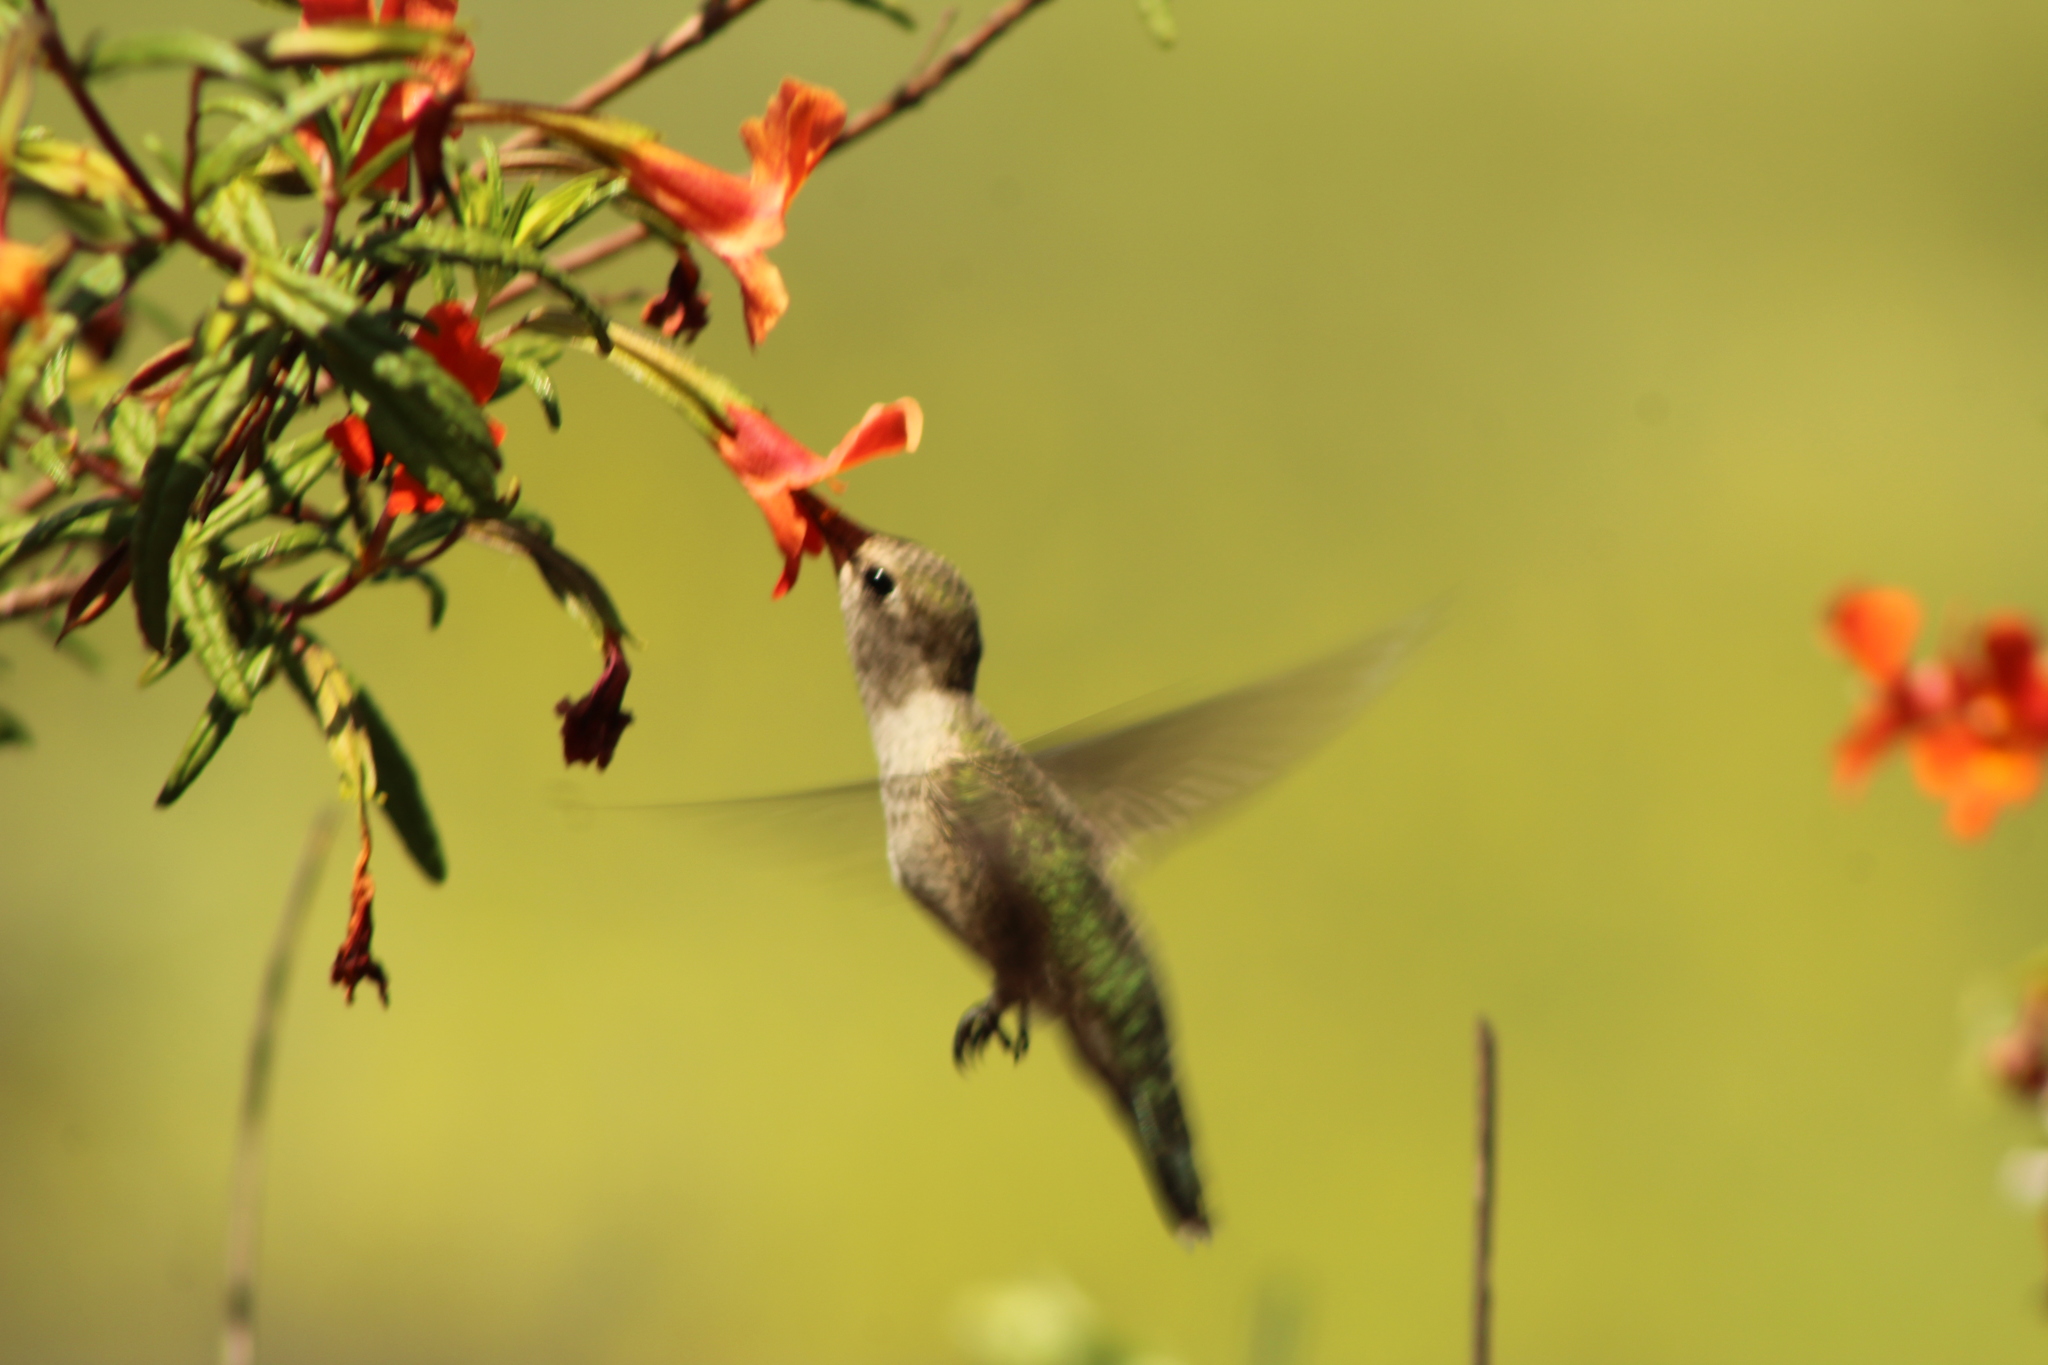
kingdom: Animalia
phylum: Chordata
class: Aves
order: Apodiformes
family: Trochilidae
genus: Calypte
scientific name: Calypte anna
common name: Anna's hummingbird
